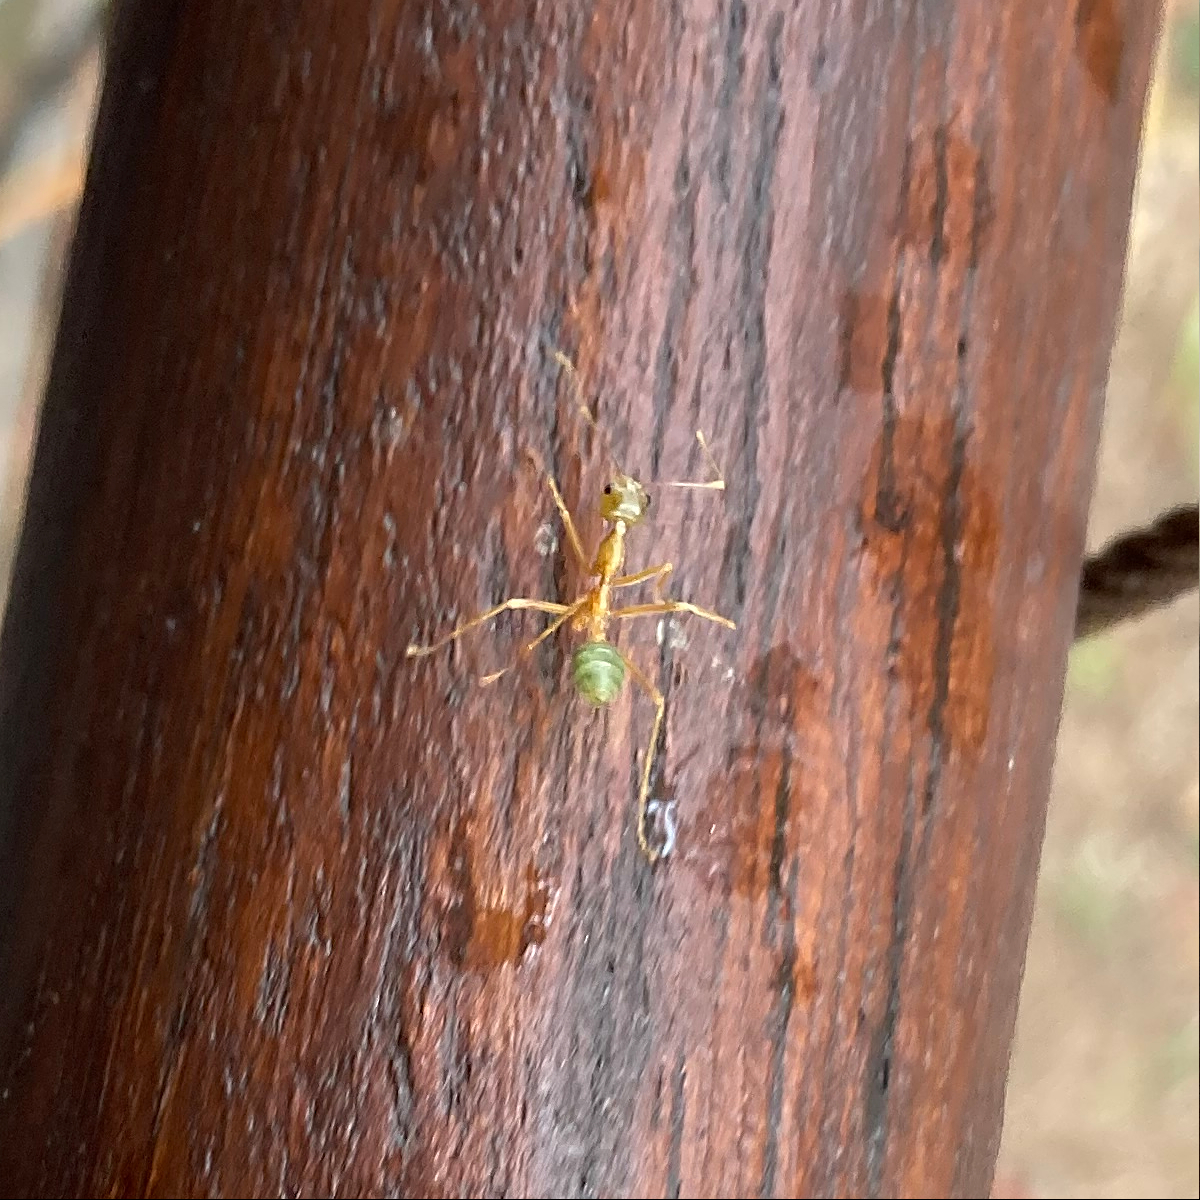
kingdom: Animalia
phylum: Arthropoda
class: Insecta
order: Hymenoptera
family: Formicidae
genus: Oecophylla
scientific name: Oecophylla smaragdina
